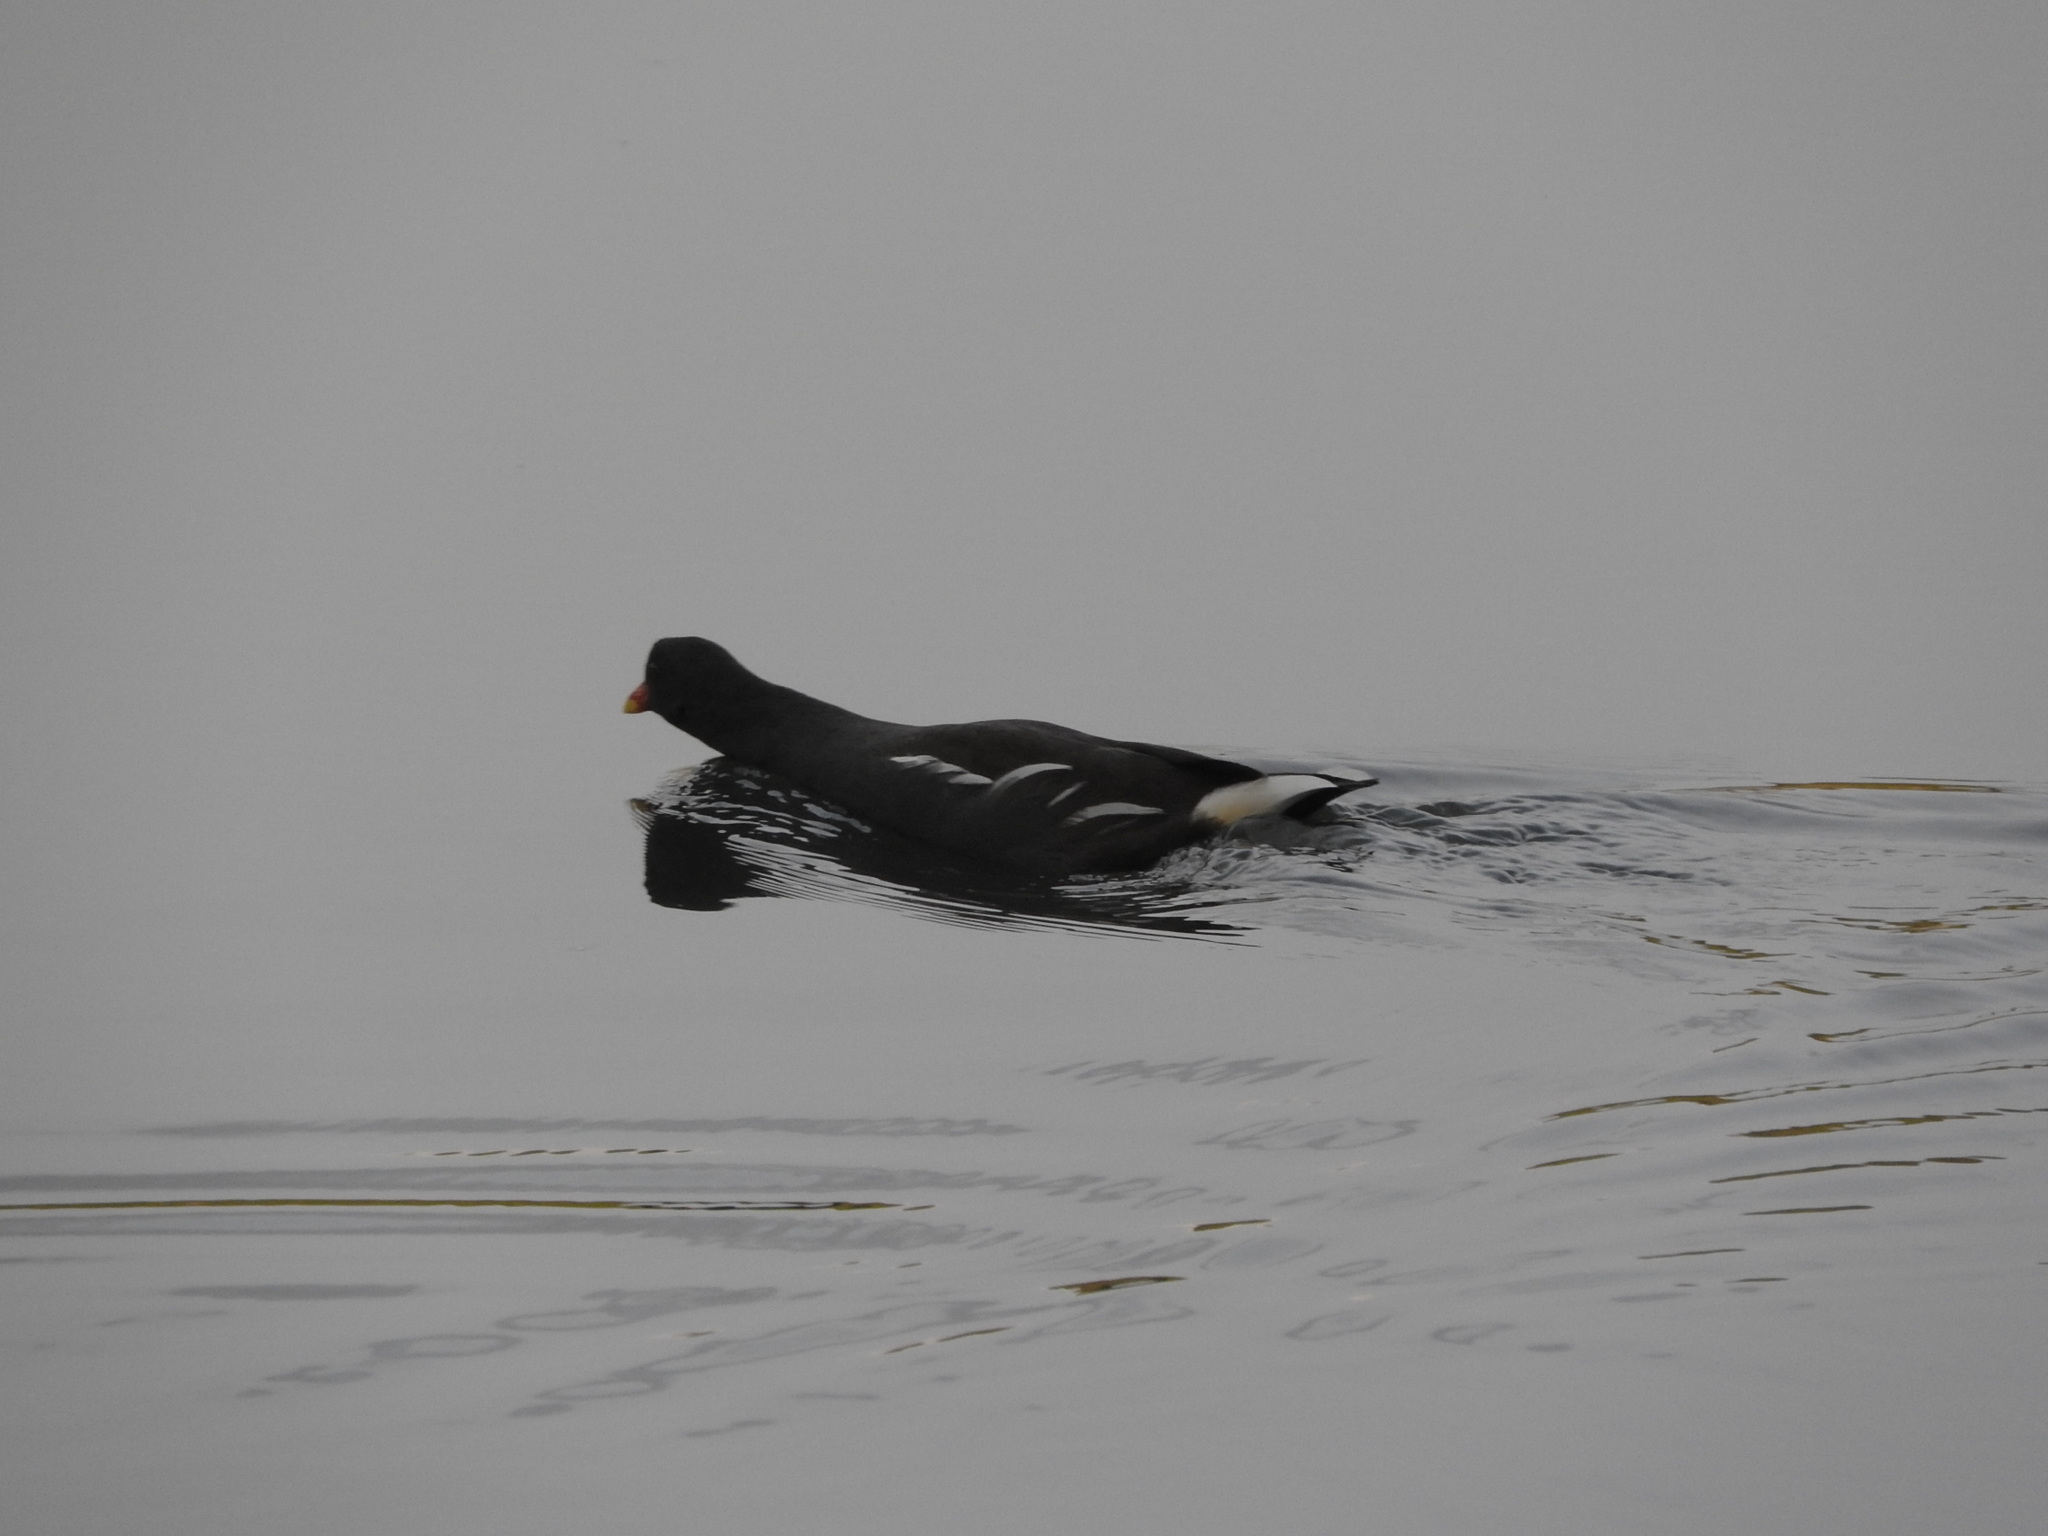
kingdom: Animalia
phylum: Chordata
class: Aves
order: Gruiformes
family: Rallidae
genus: Gallinula
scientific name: Gallinula chloropus
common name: Common moorhen
